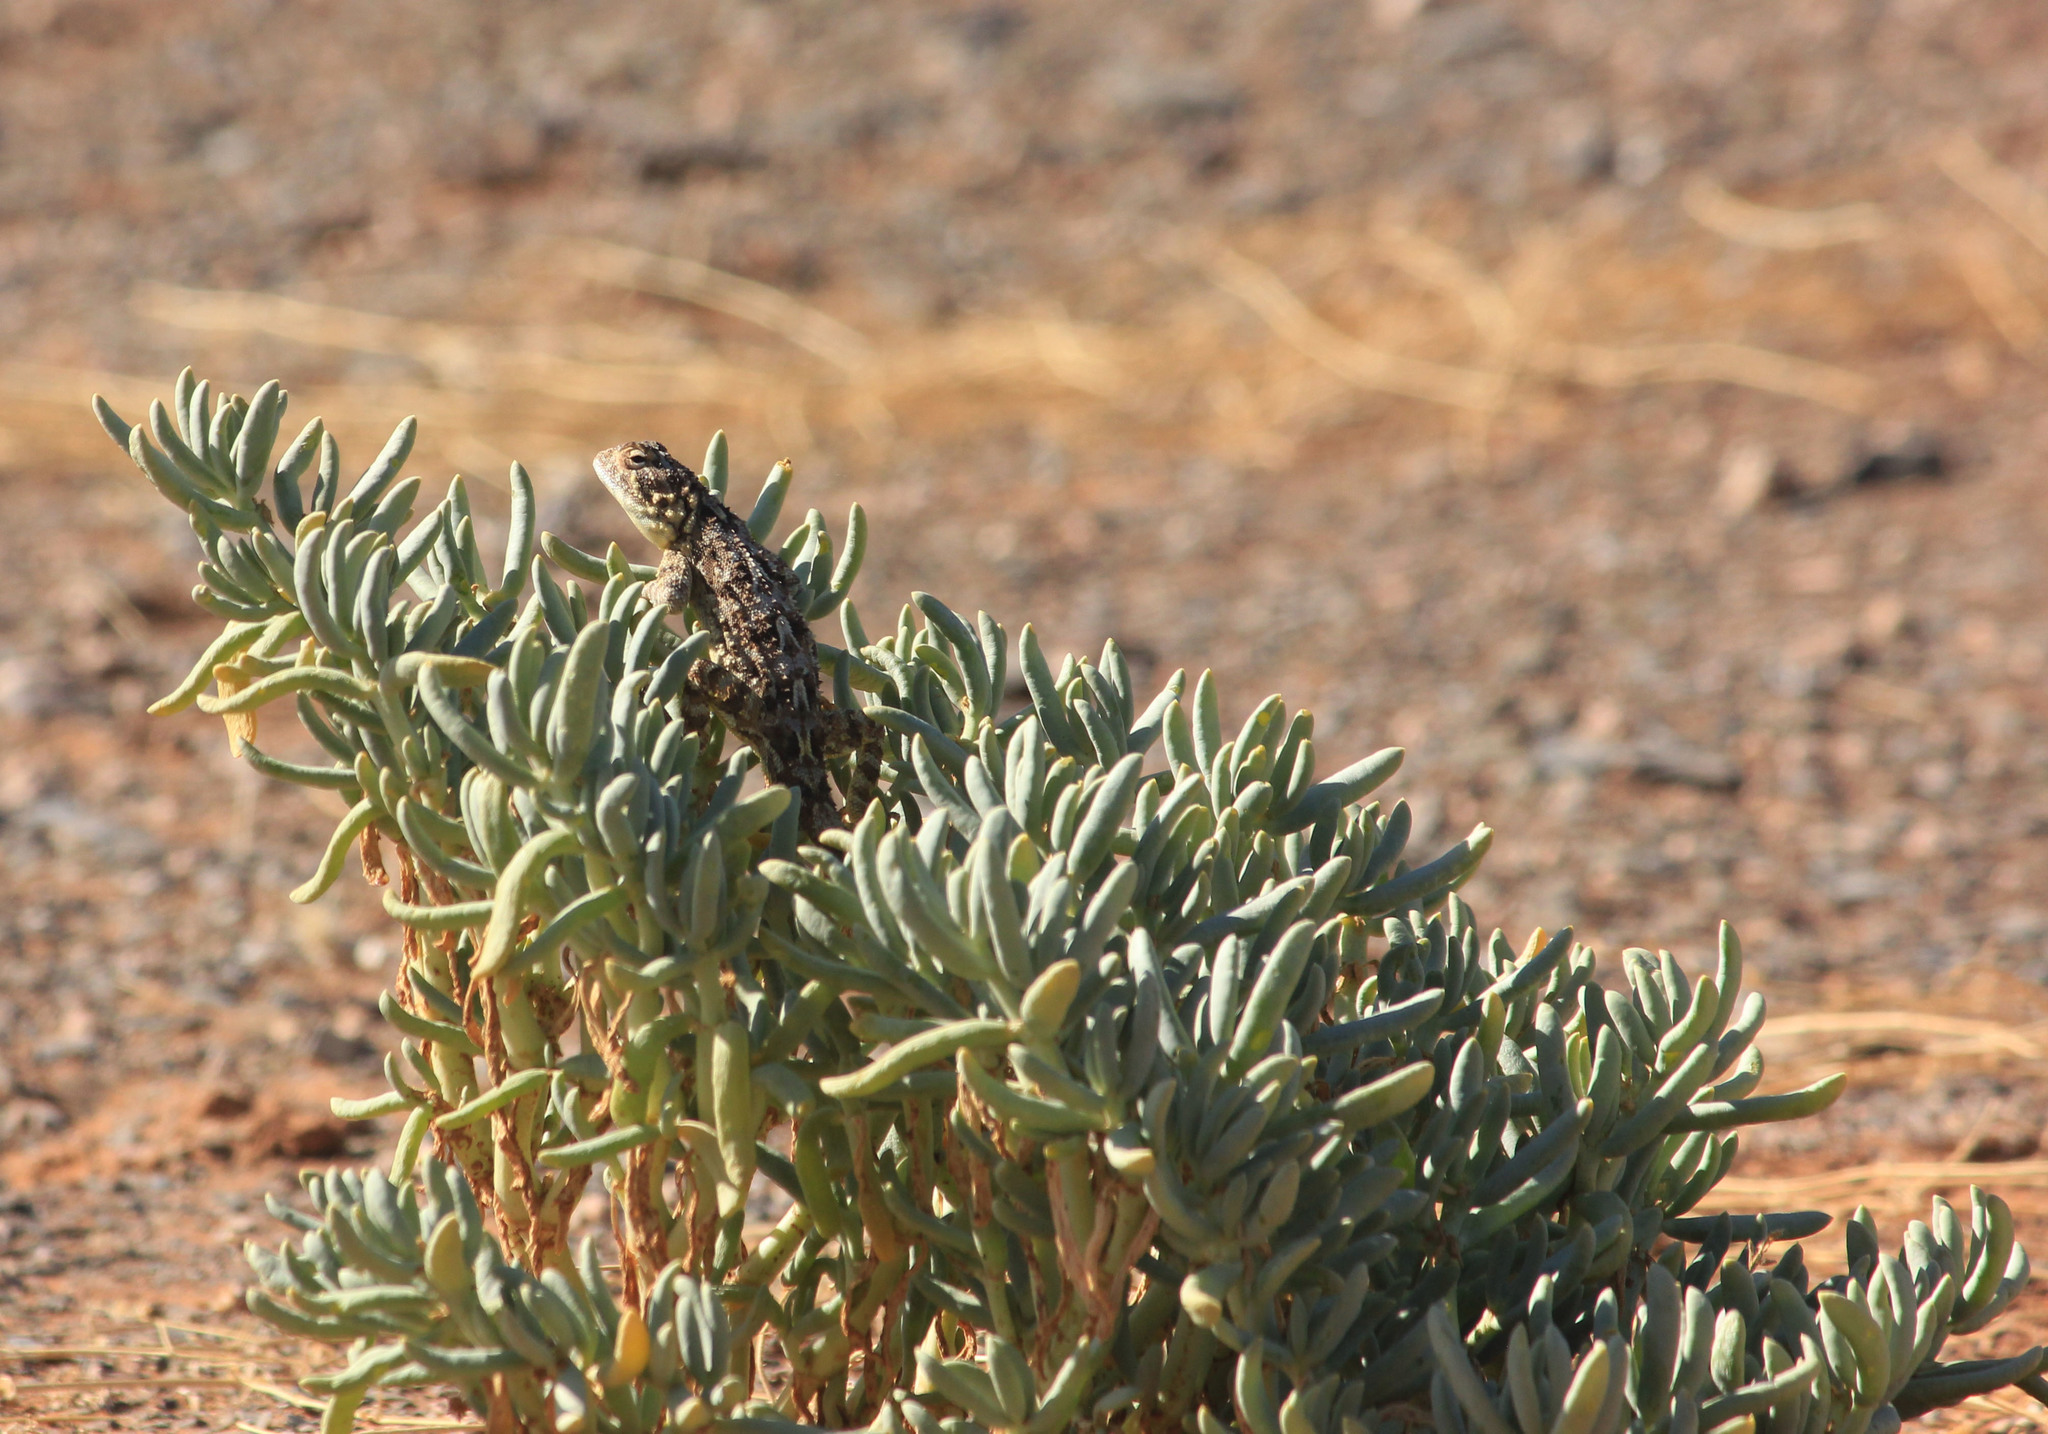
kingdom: Animalia
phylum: Chordata
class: Squamata
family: Agamidae
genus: Agama
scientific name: Agama hispida
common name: Common spiny agama
